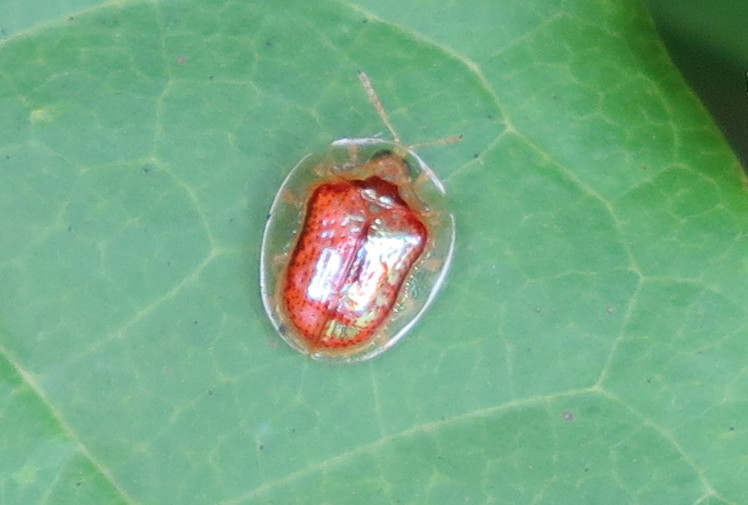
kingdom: Animalia
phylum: Arthropoda
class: Insecta
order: Coleoptera
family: Chrysomelidae
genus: Microctenochira
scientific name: Microctenochira quadrata
